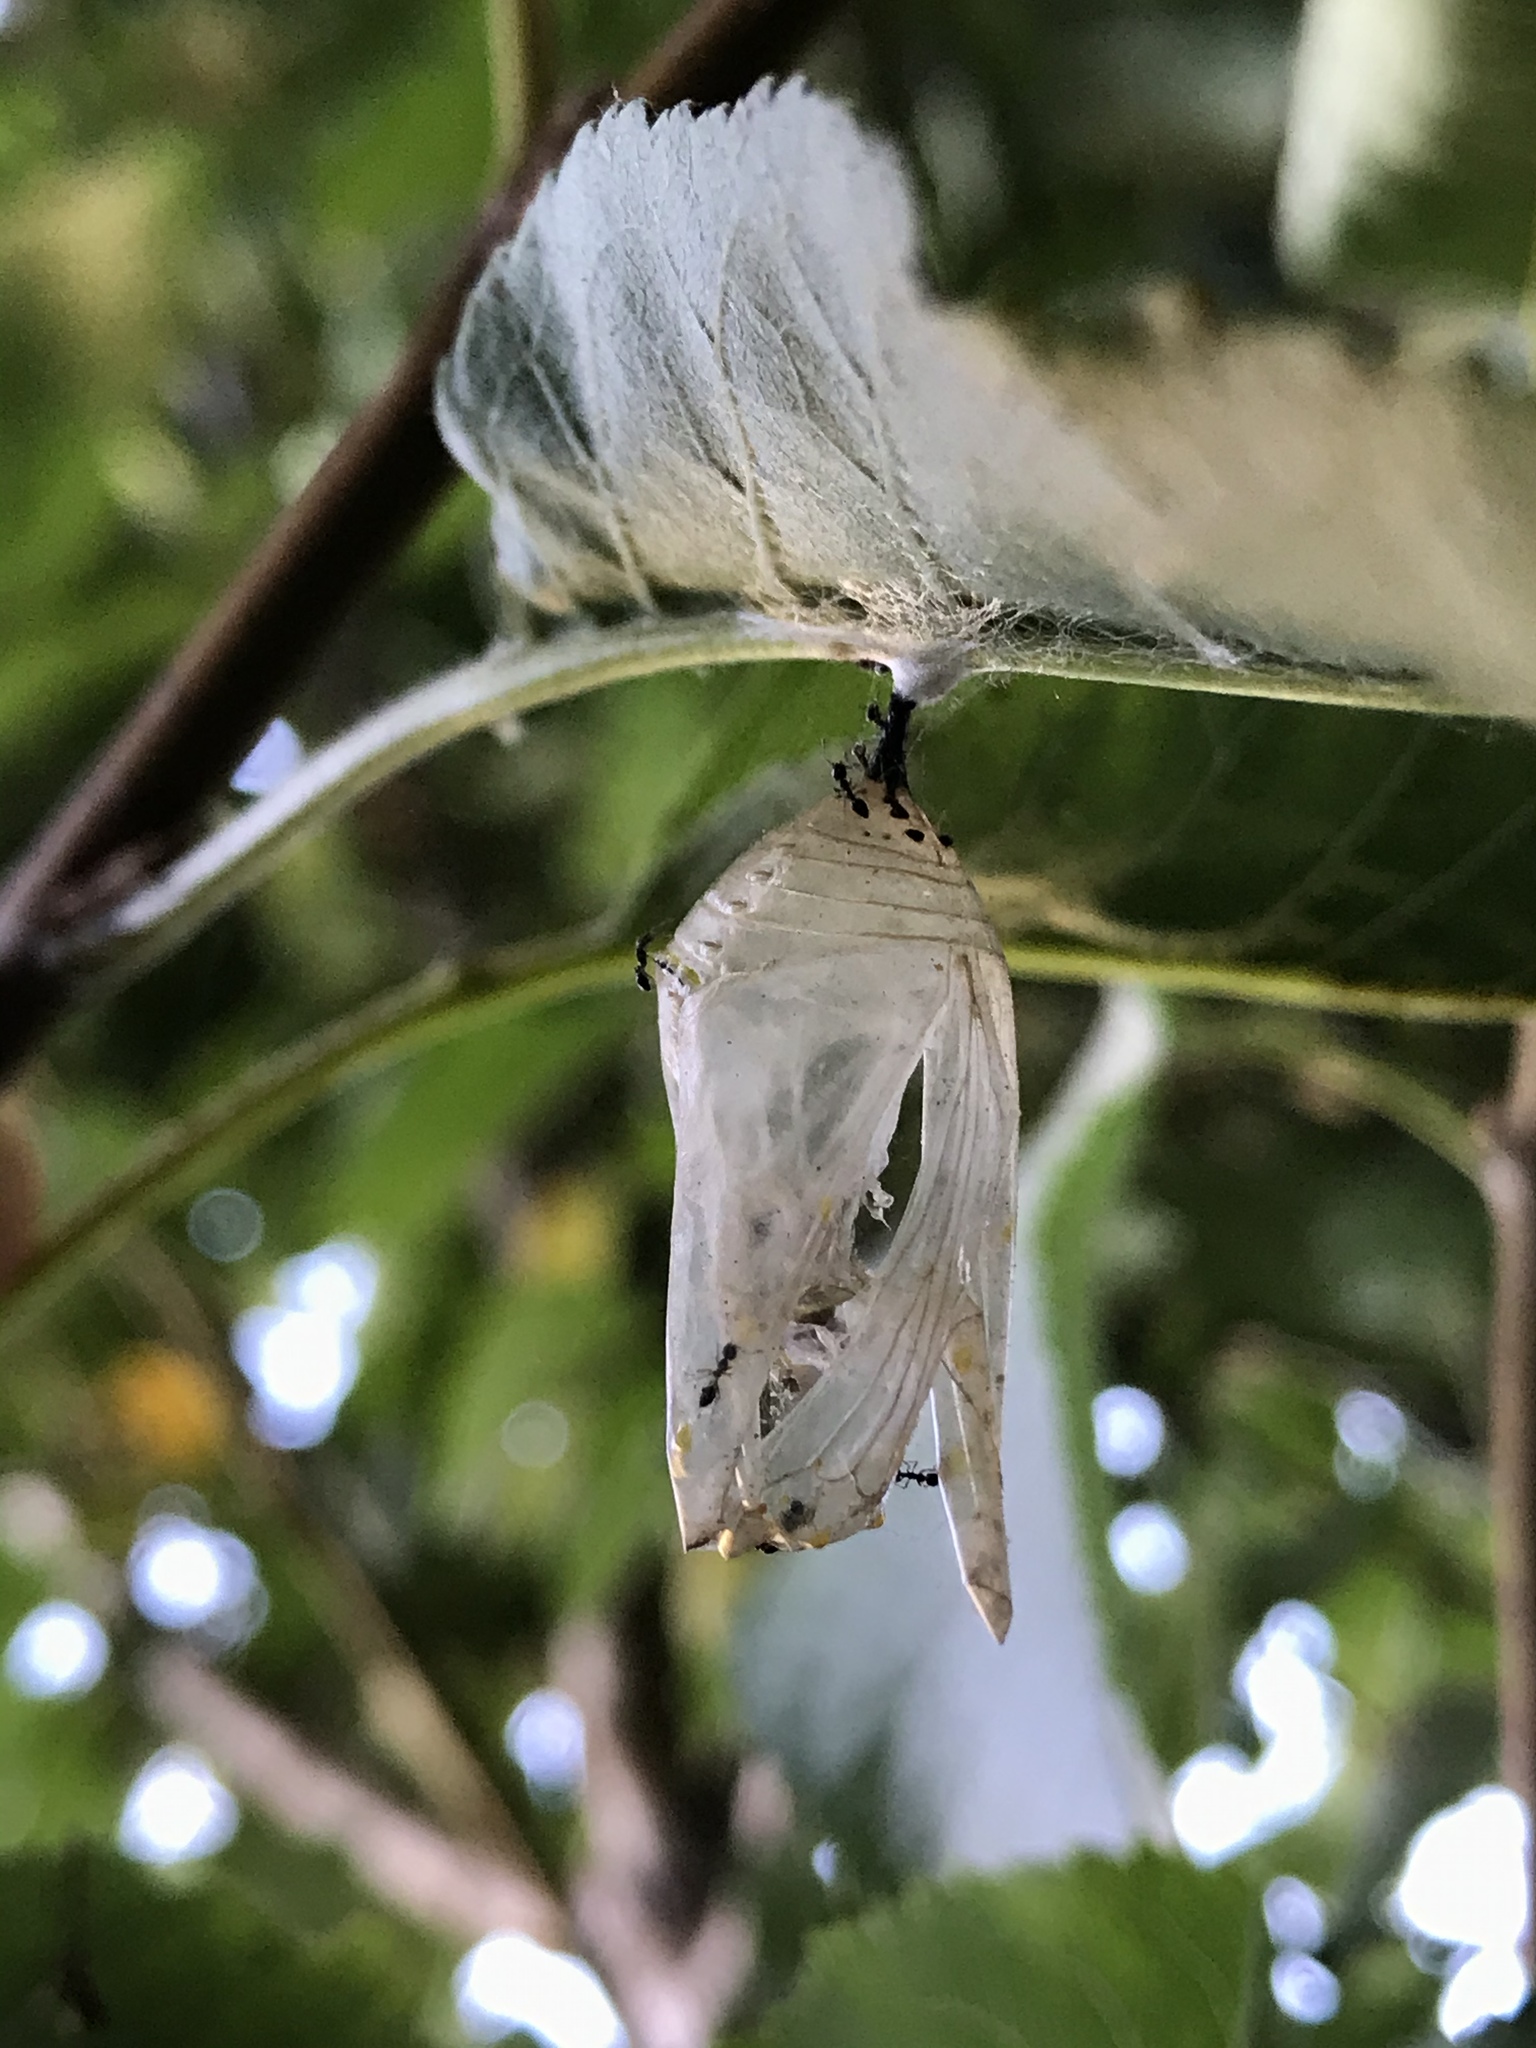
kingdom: Animalia
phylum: Arthropoda
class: Insecta
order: Lepidoptera
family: Nymphalidae
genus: Danaus
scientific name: Danaus plexippus
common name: Monarch
